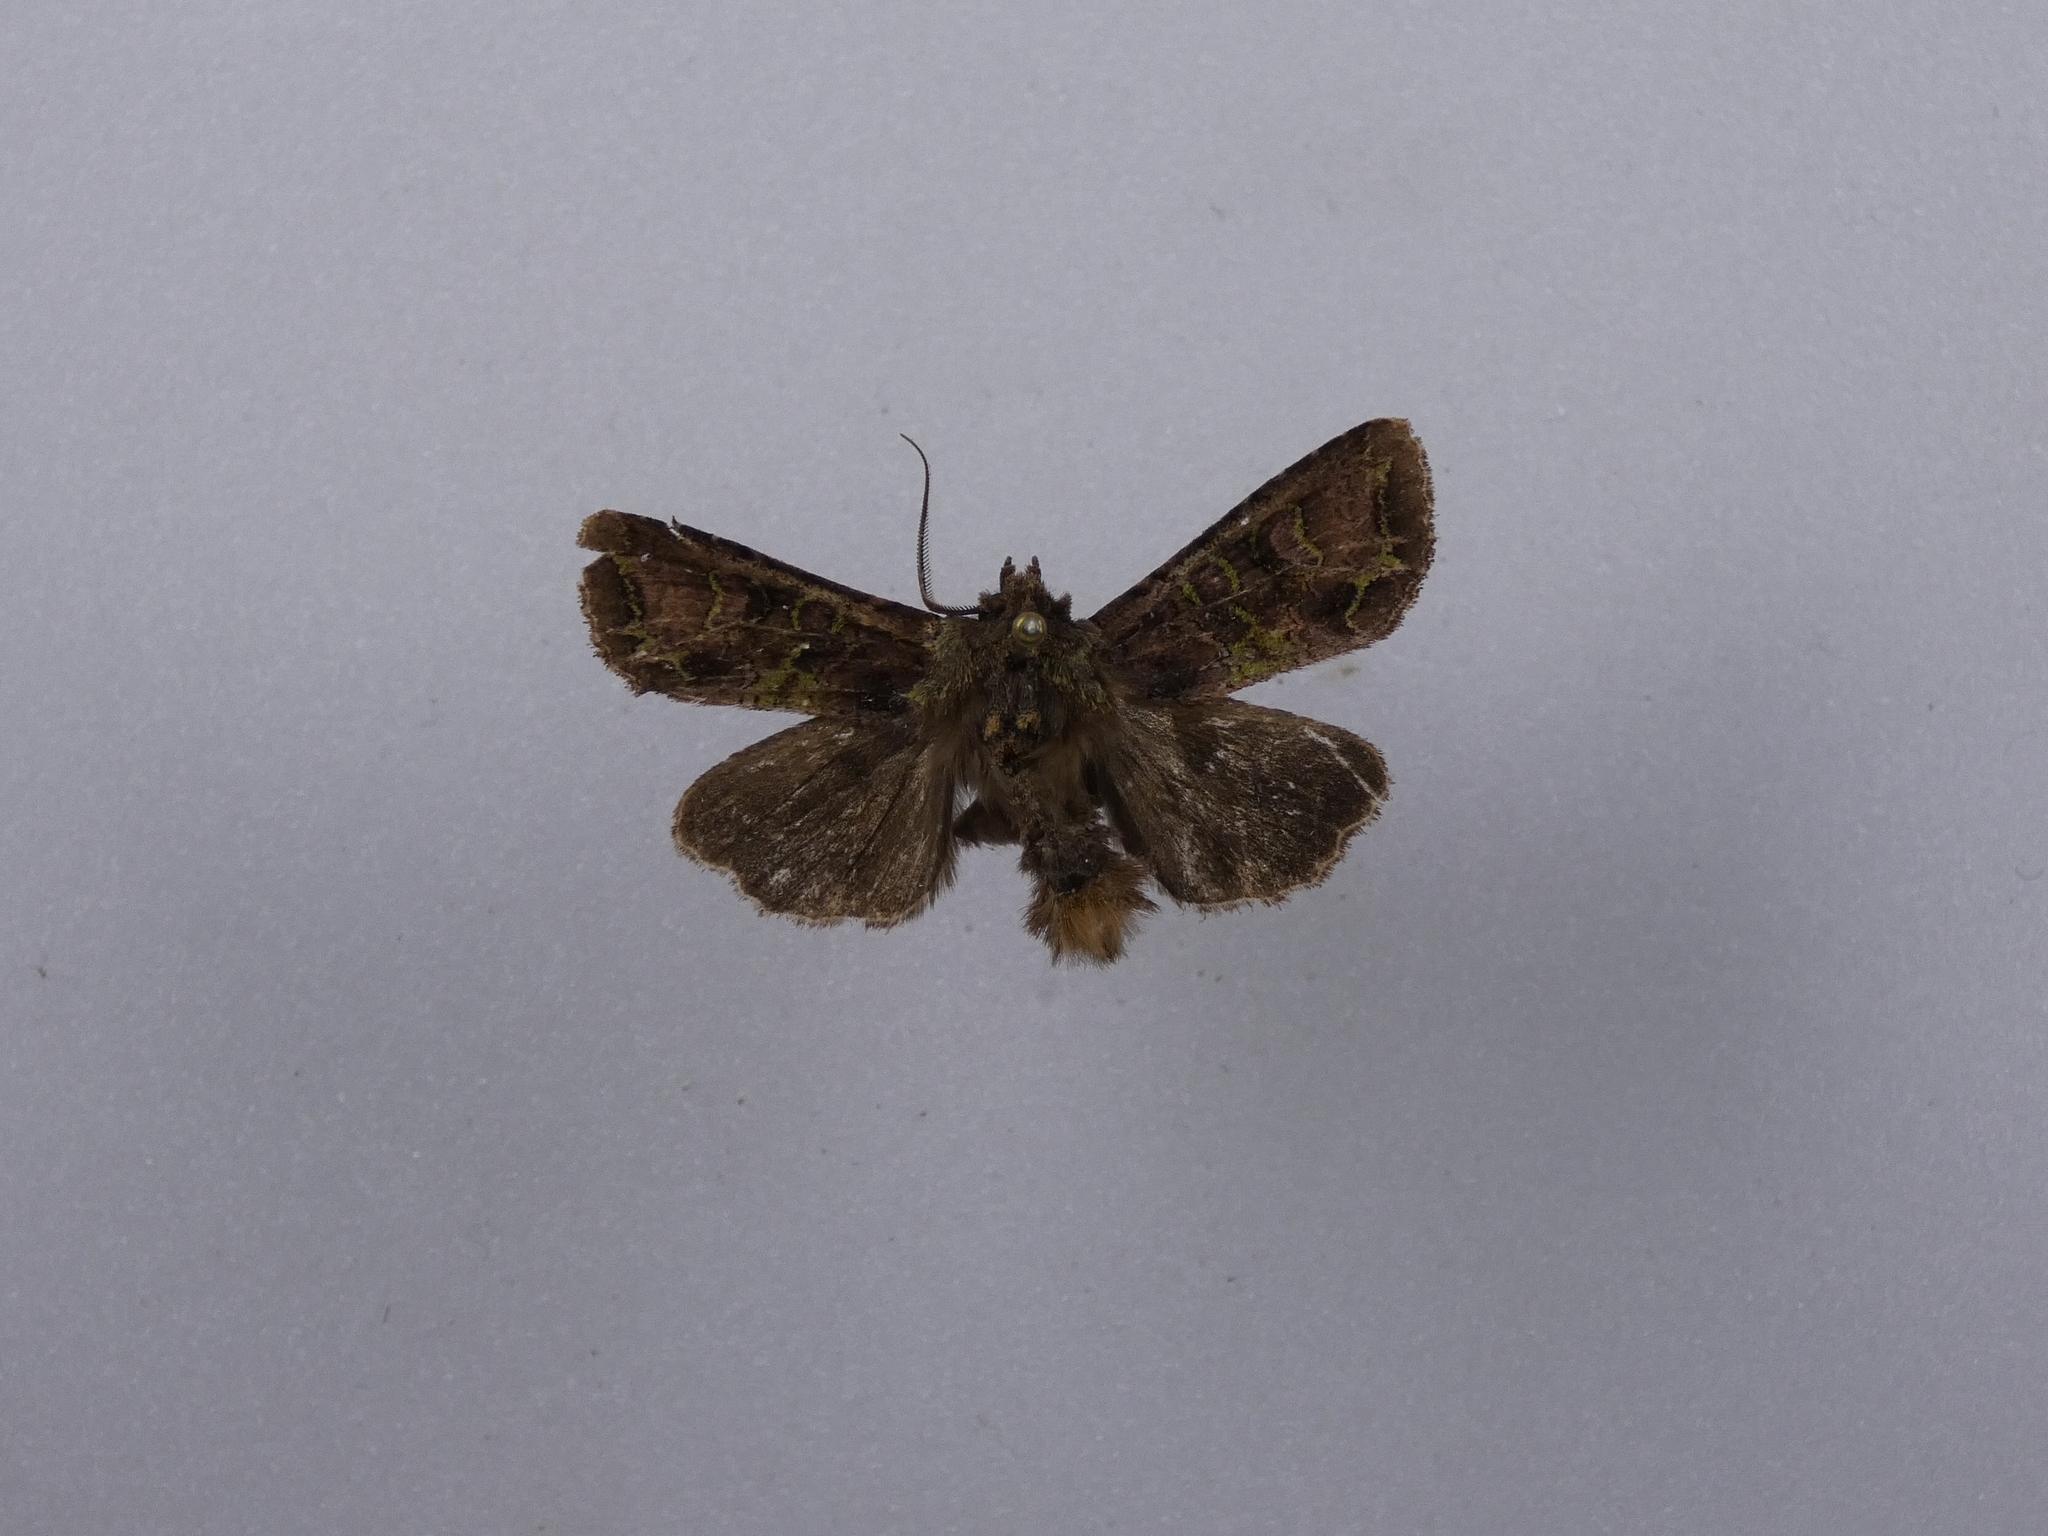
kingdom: Animalia
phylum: Arthropoda
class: Insecta
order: Lepidoptera
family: Noctuidae
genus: Ichneutica
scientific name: Ichneutica insignis
